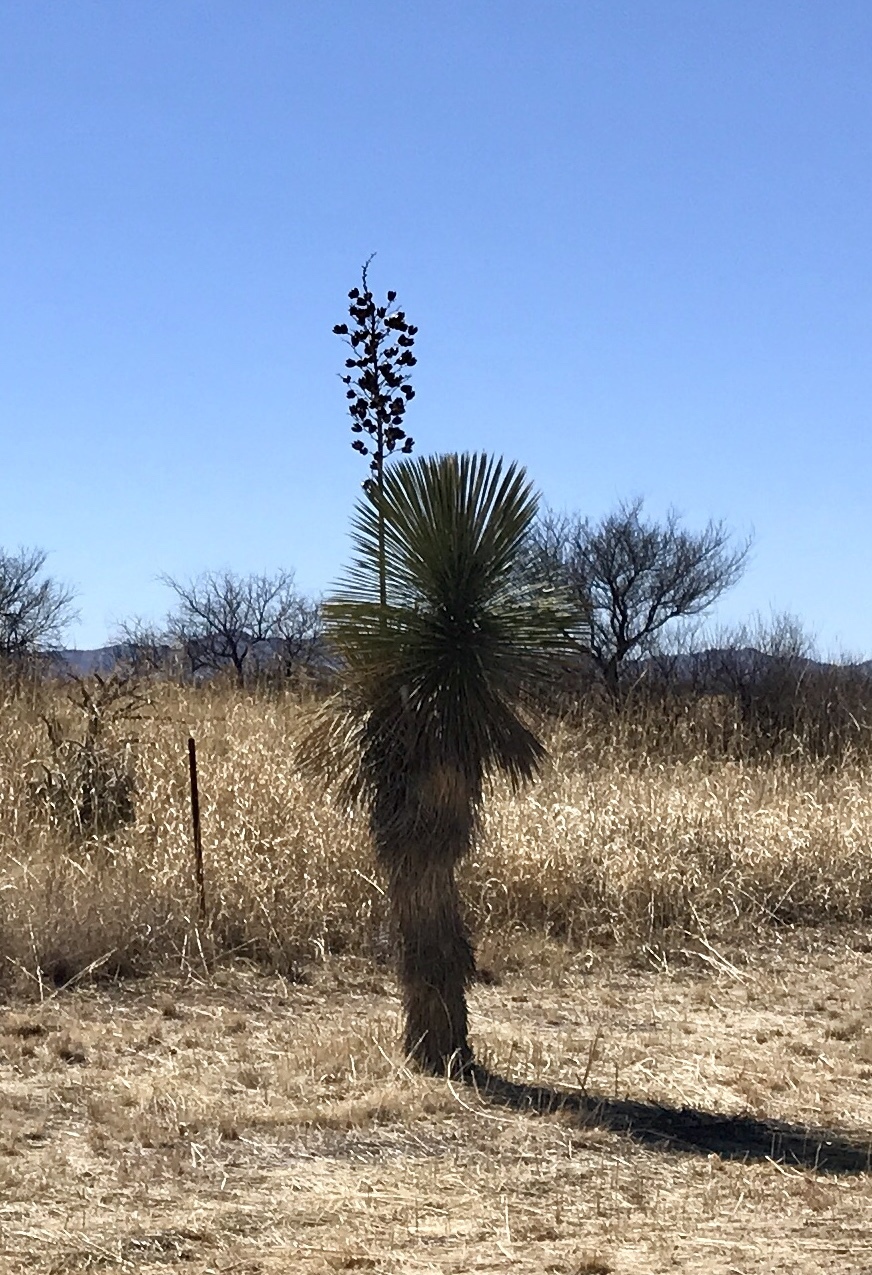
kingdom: Plantae
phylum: Tracheophyta
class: Liliopsida
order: Asparagales
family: Asparagaceae
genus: Yucca
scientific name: Yucca elata
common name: Palmella
